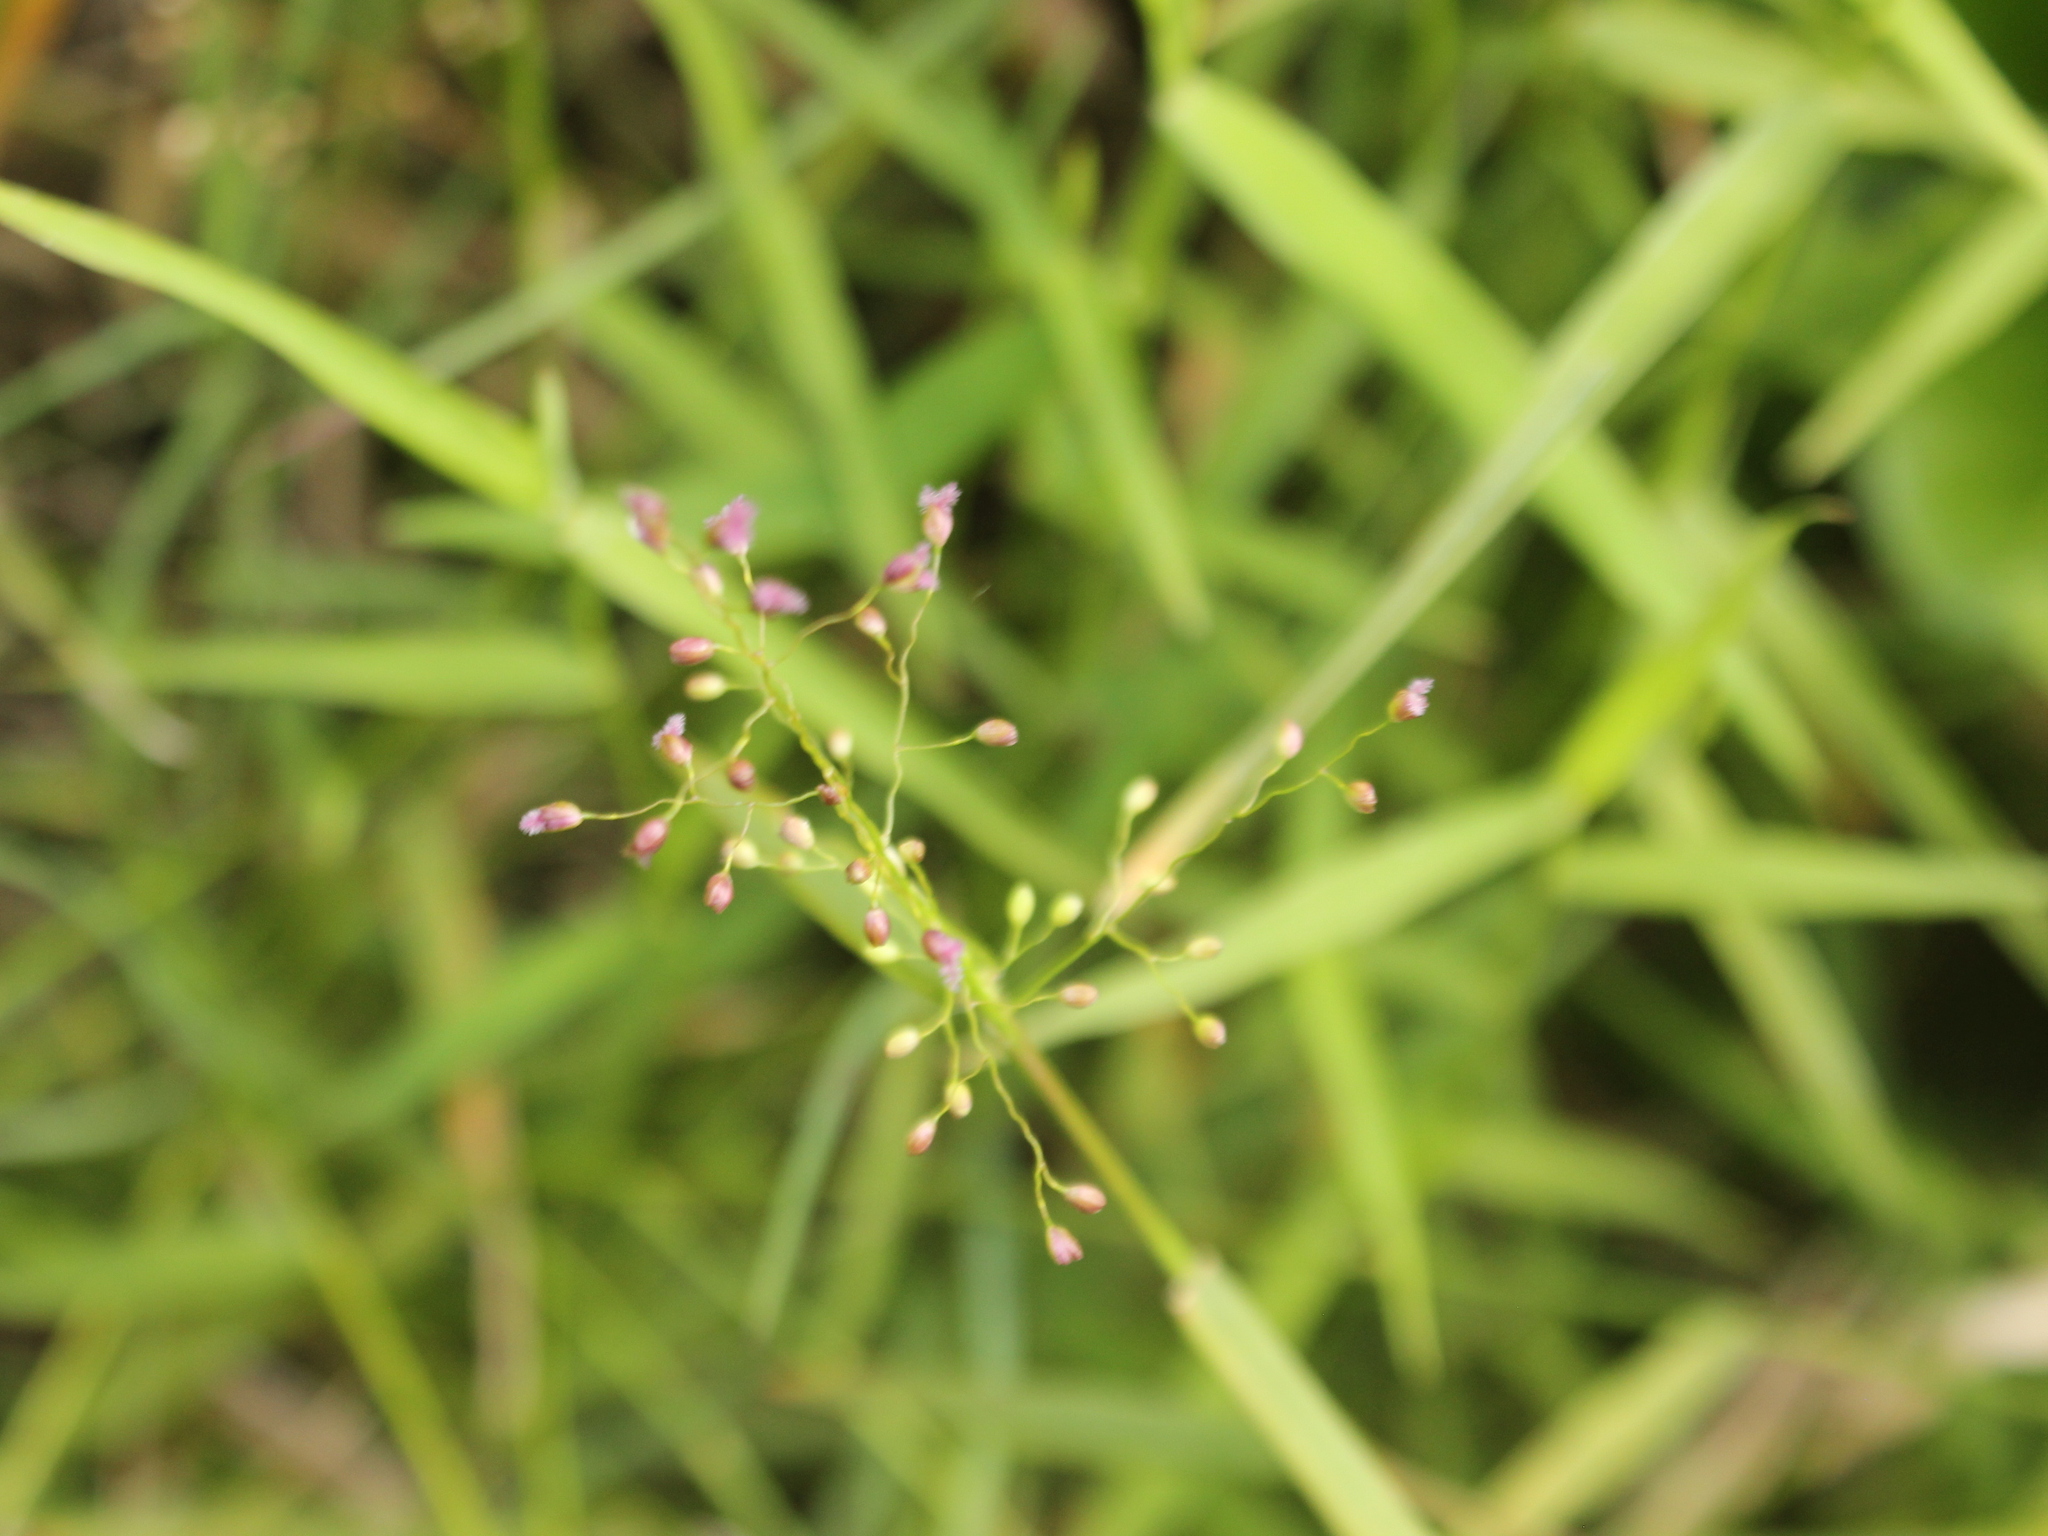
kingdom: Plantae
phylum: Tracheophyta
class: Liliopsida
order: Poales
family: Poaceae
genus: Isachne
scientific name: Isachne globosa
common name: Swamp millet
